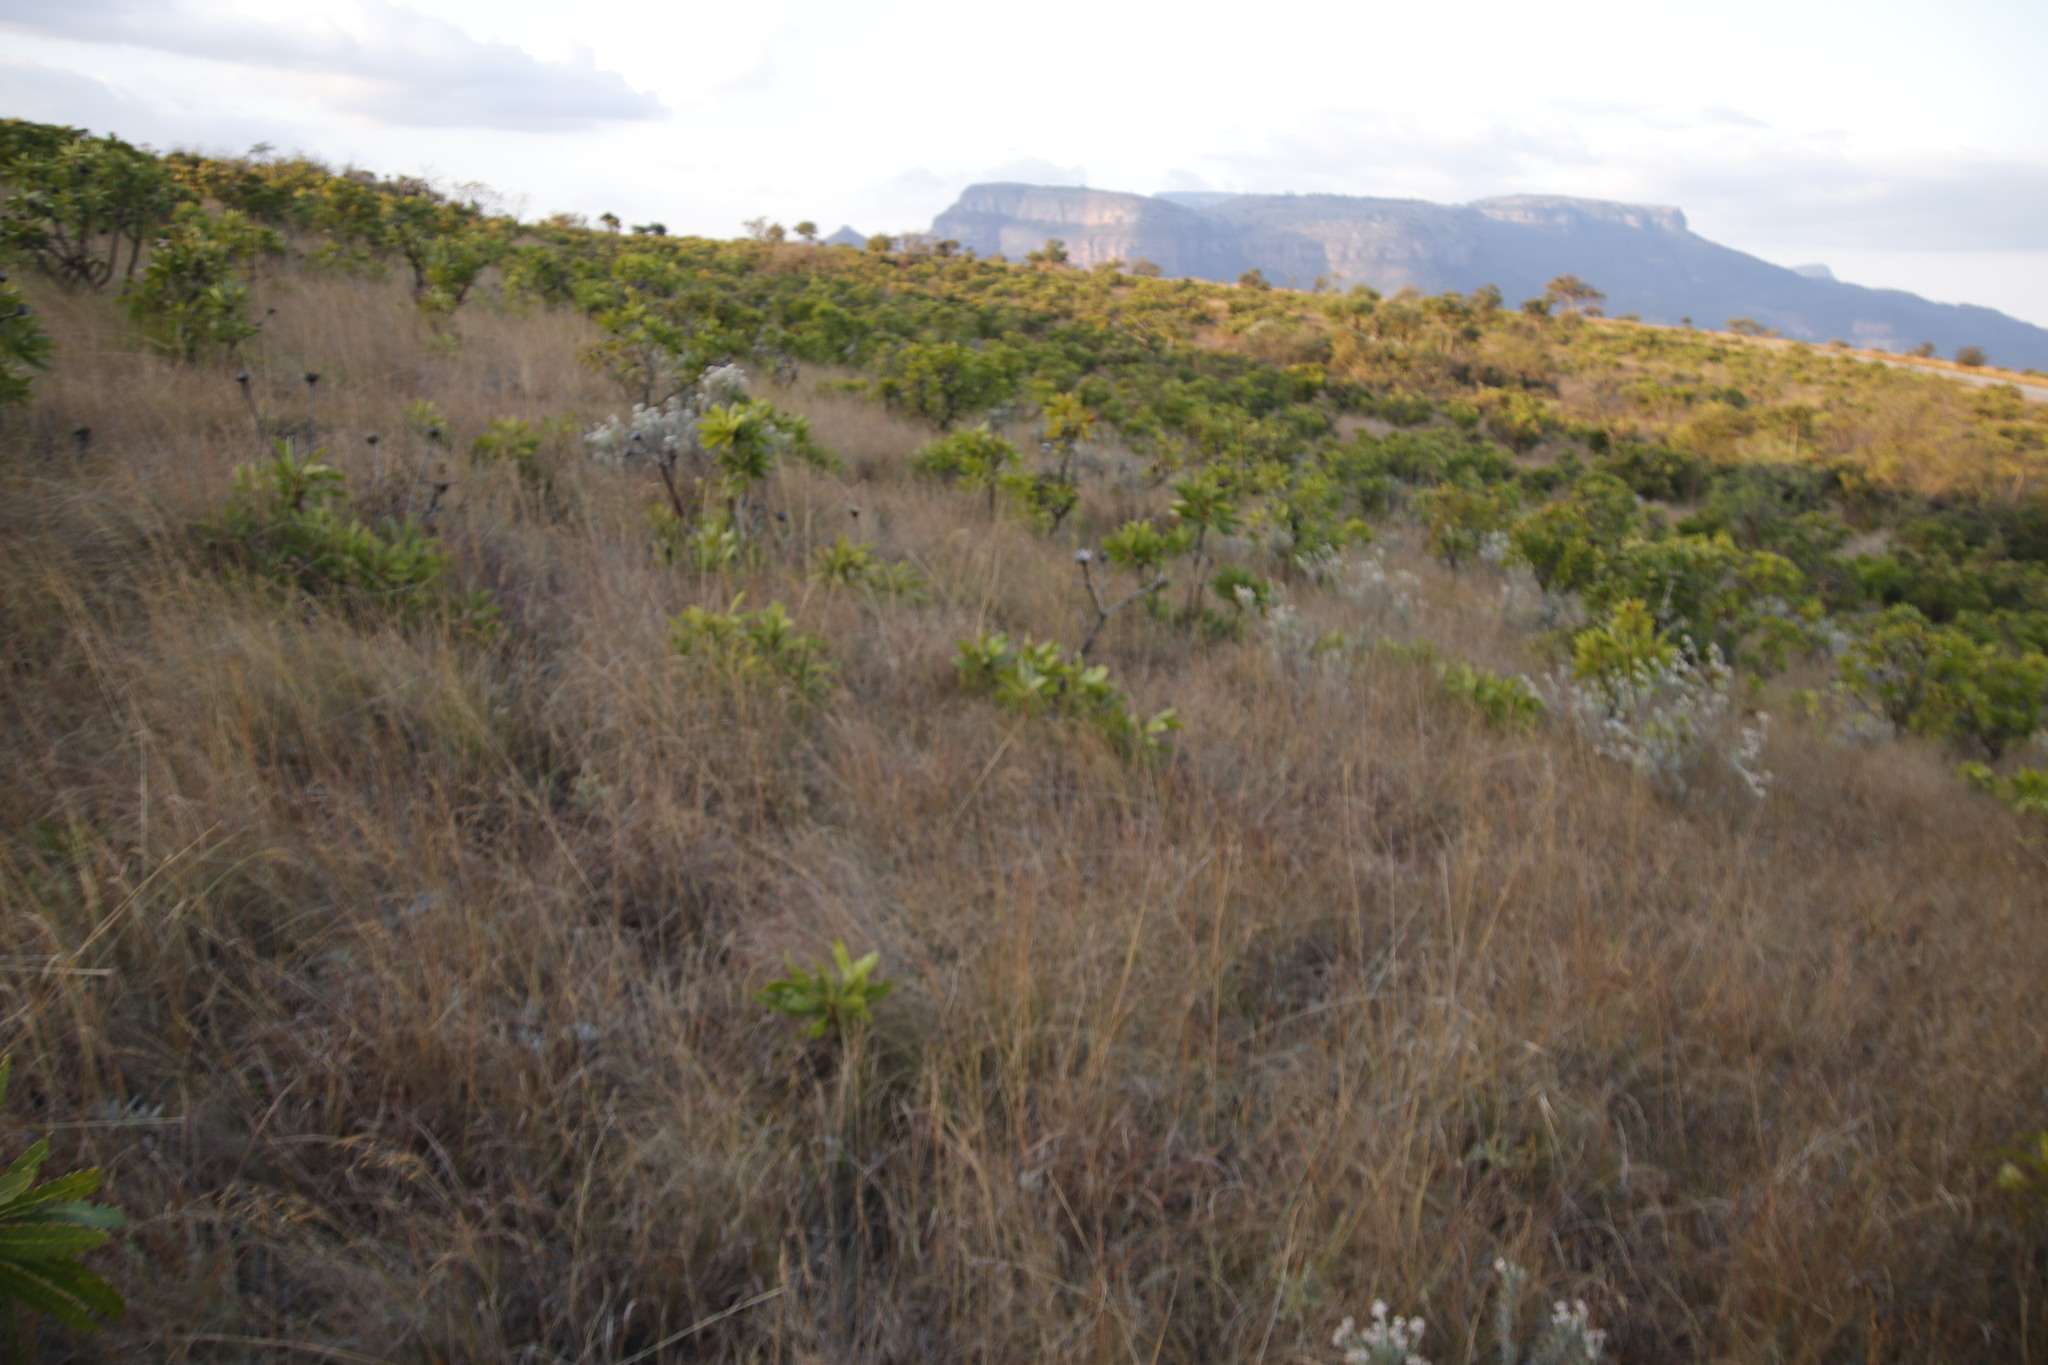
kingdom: Plantae
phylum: Tracheophyta
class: Magnoliopsida
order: Proteales
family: Proteaceae
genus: Protea
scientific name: Protea caffra
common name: Common sugarbush
